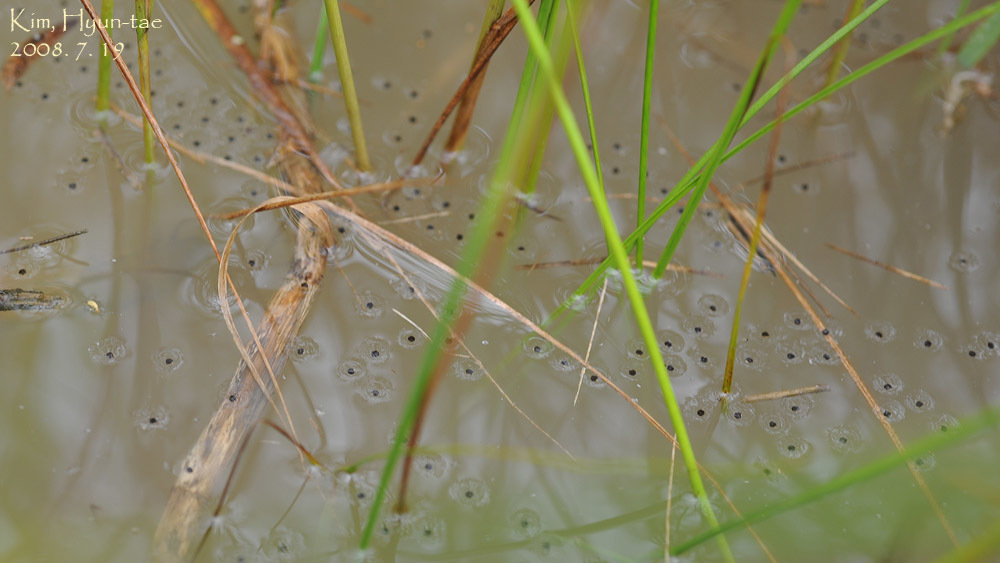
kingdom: Animalia
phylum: Chordata
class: Amphibia
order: Anura
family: Microhylidae
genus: Kaloula
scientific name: Kaloula borealis
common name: Boreal digging frog
